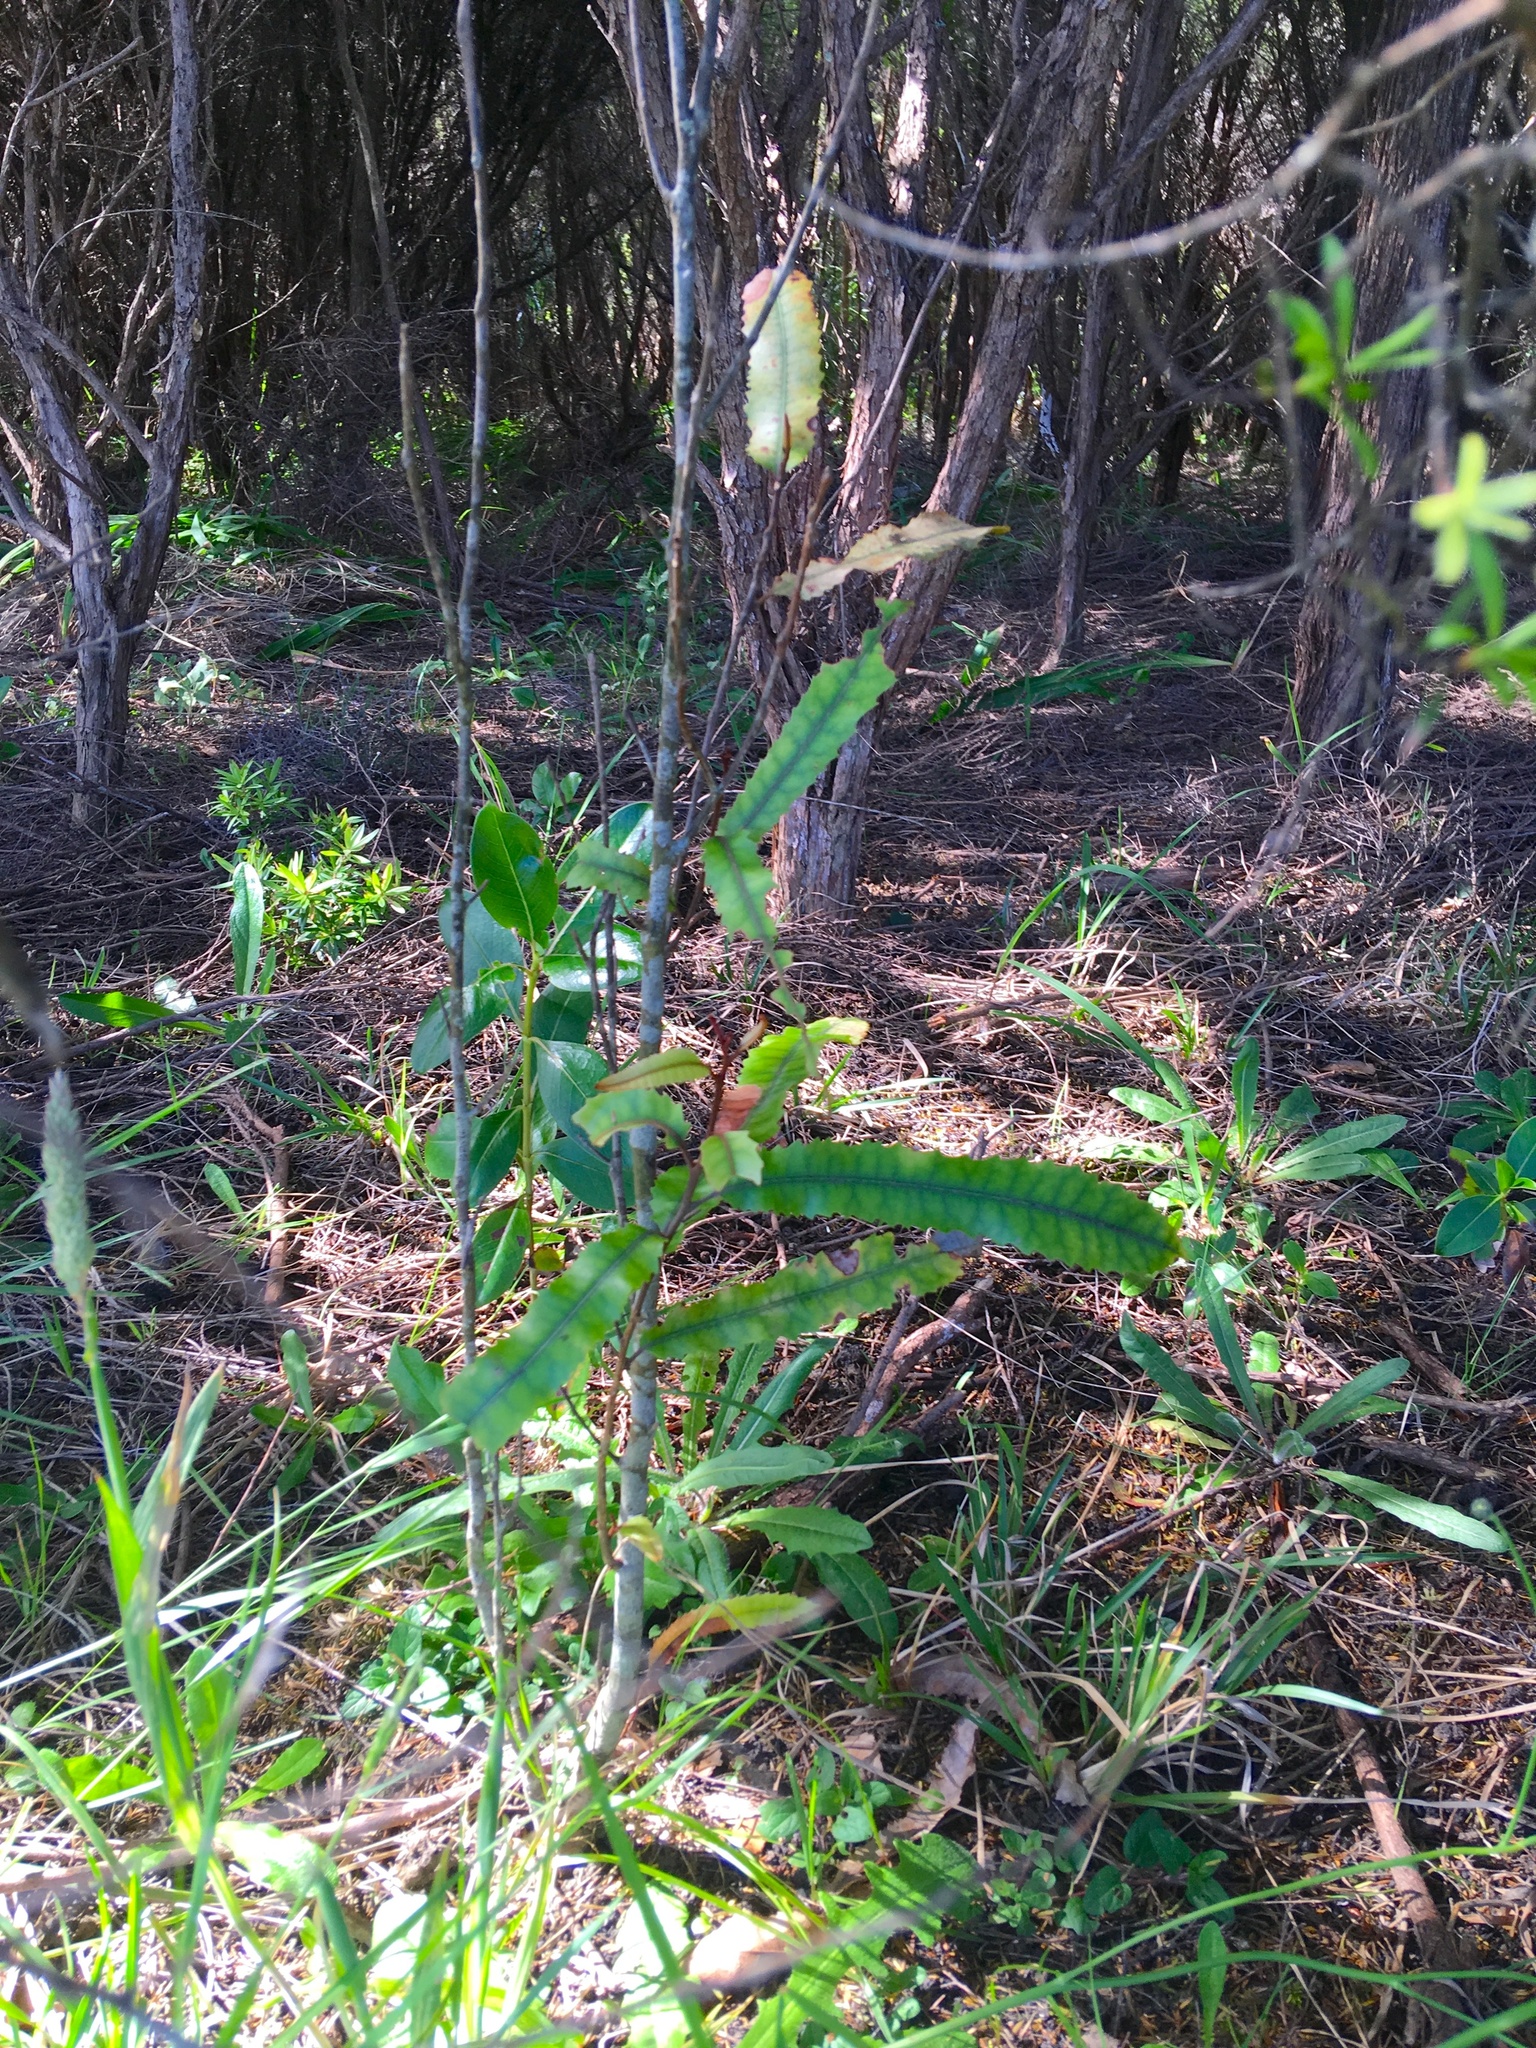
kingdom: Plantae
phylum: Tracheophyta
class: Magnoliopsida
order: Proteales
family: Proteaceae
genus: Knightia
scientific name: Knightia excelsa
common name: New zealand-honeysuckle
